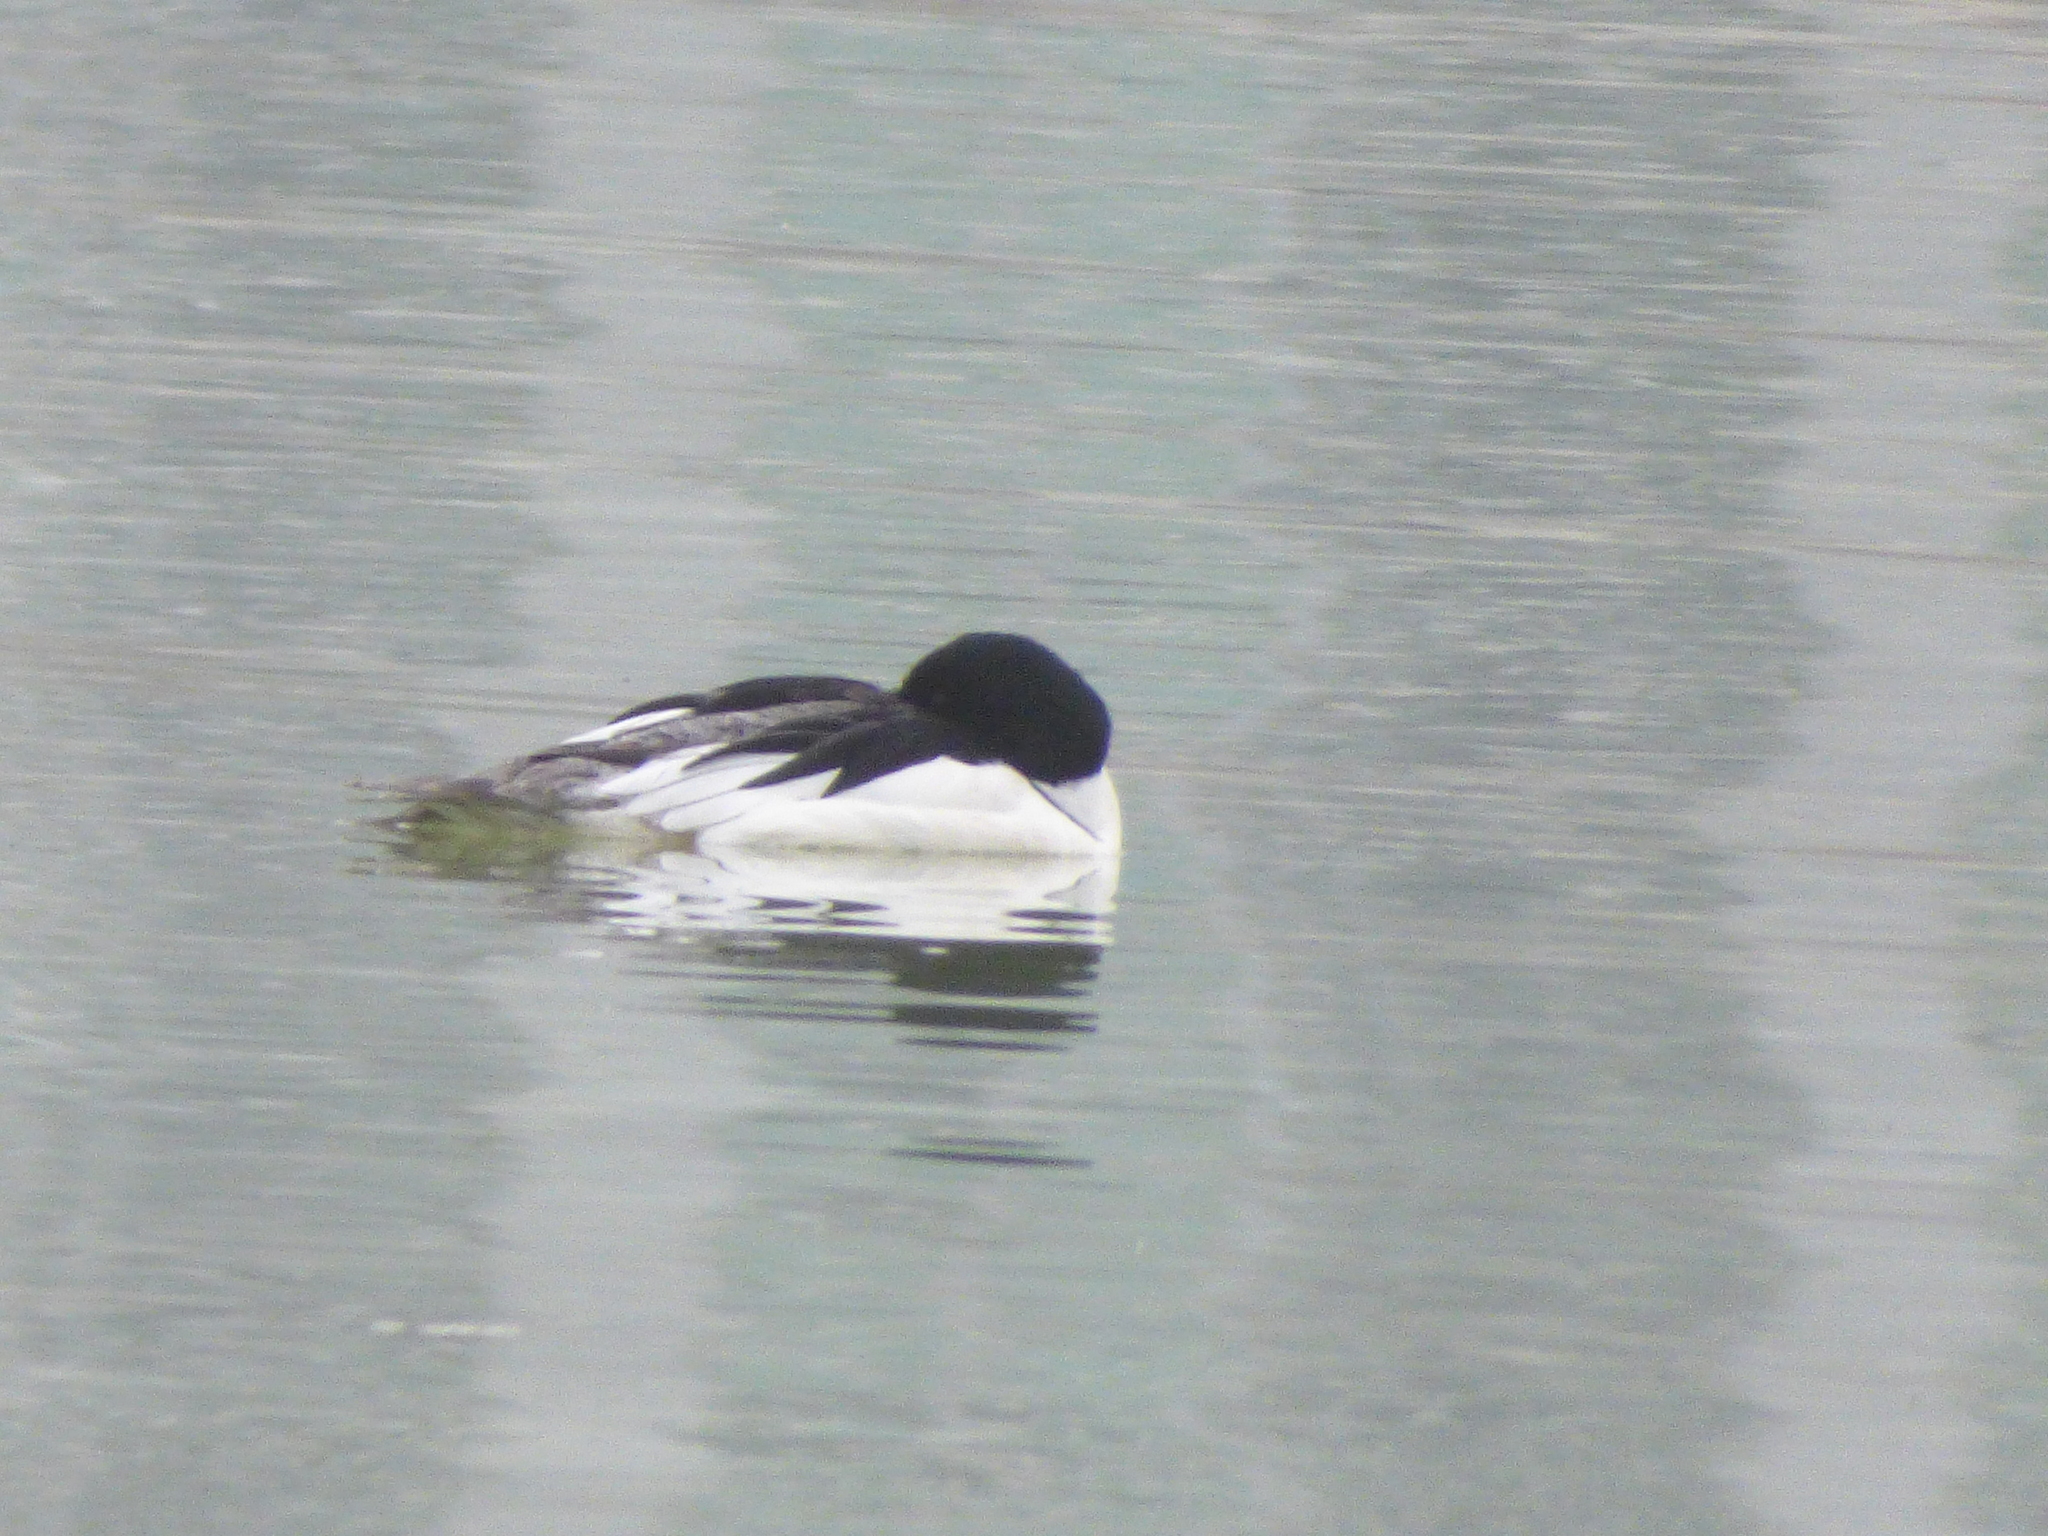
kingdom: Animalia
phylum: Chordata
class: Aves
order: Anseriformes
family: Anatidae
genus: Mergus
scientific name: Mergus merganser
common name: Common merganser
